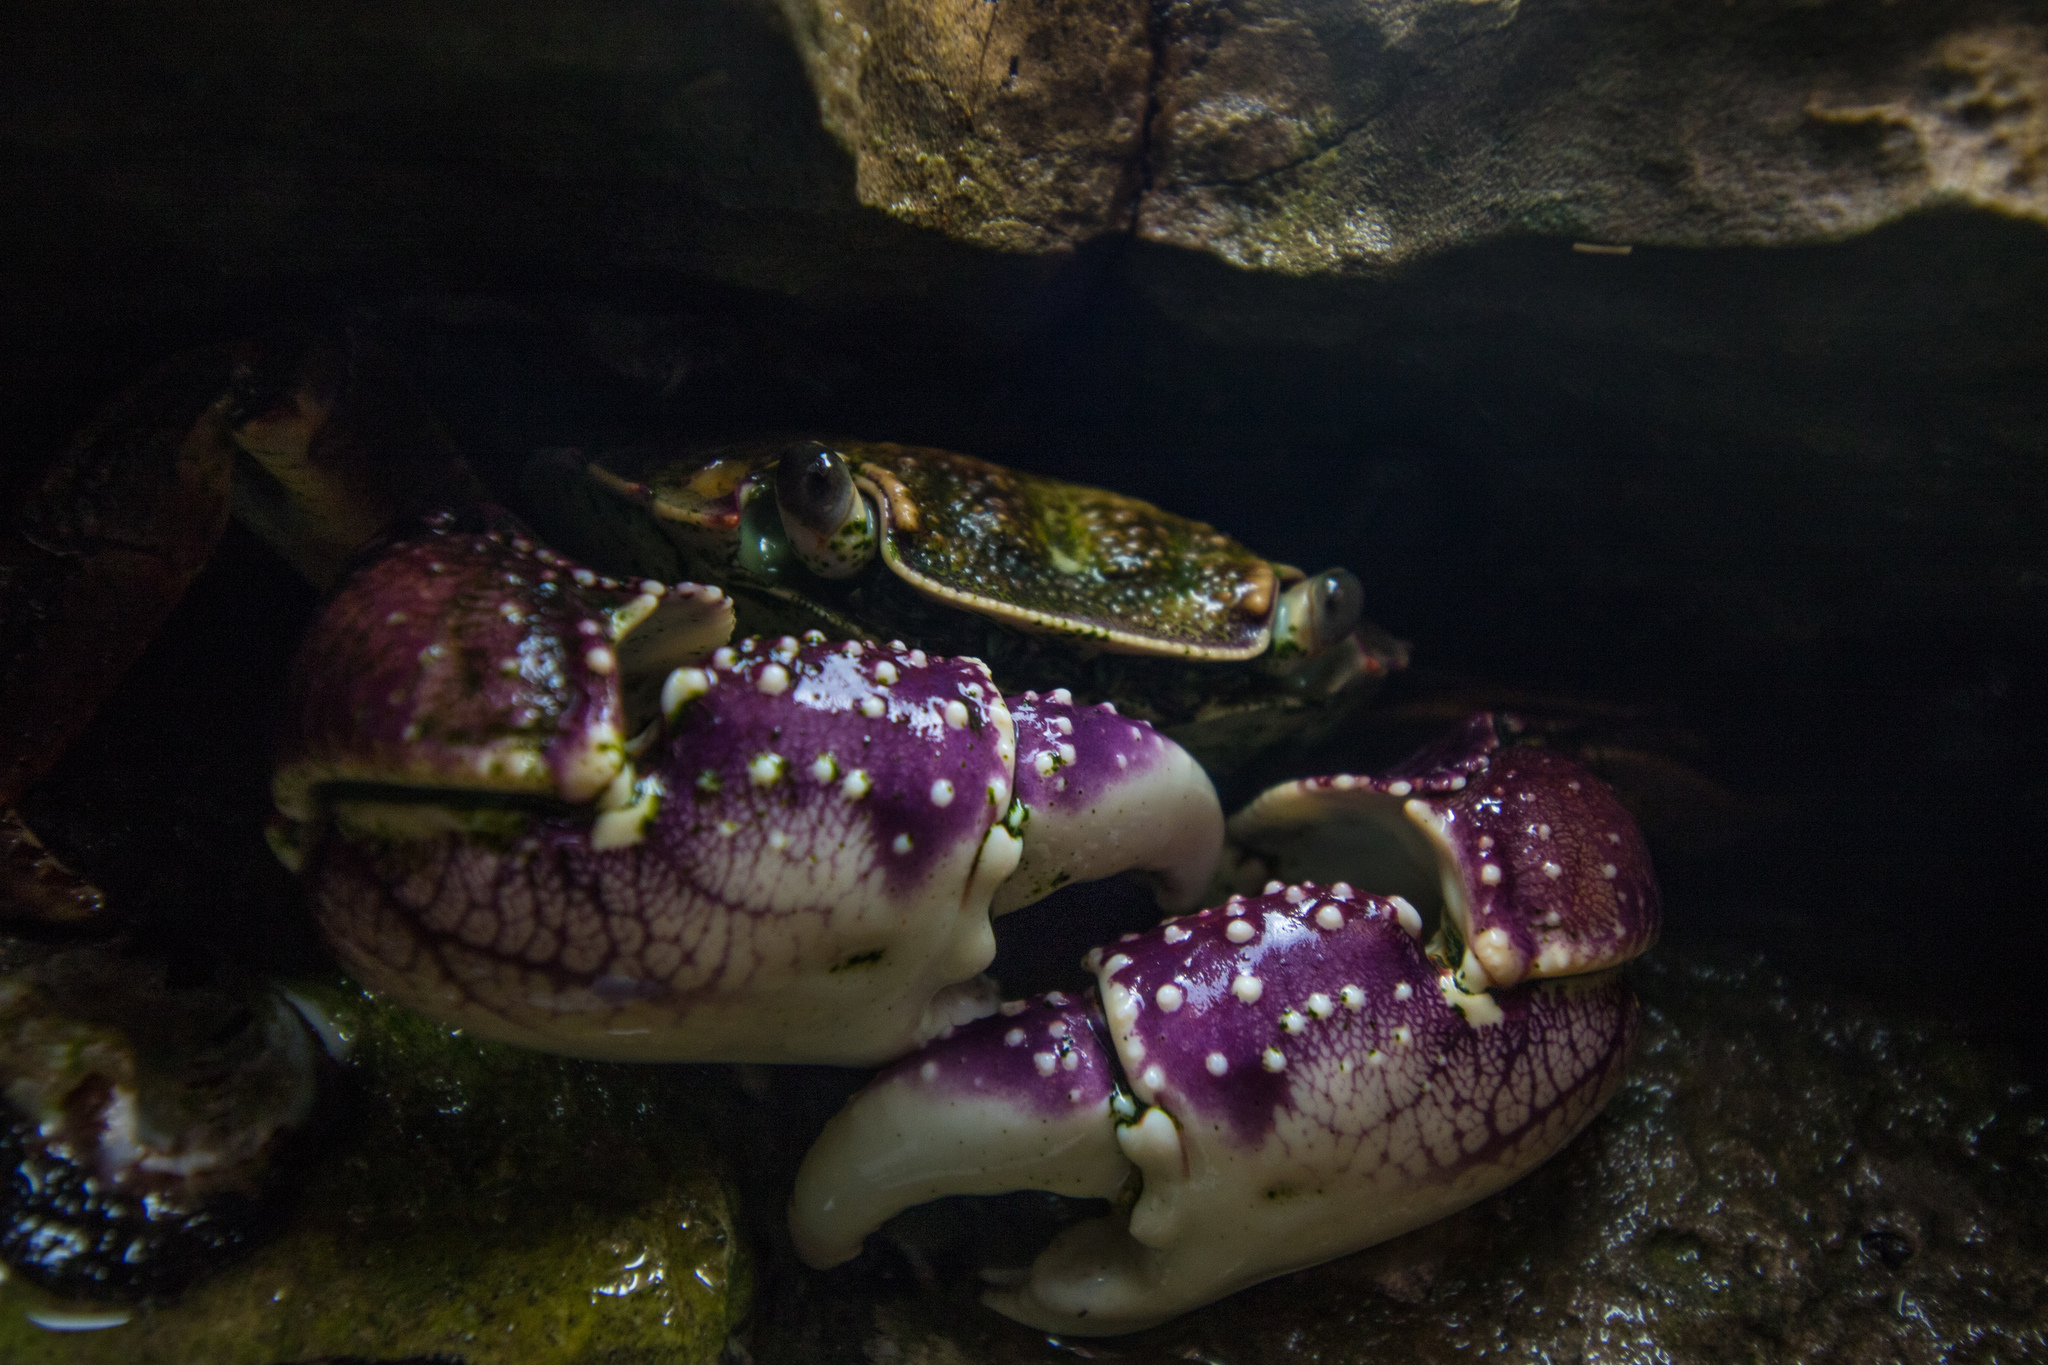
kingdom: Animalia
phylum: Arthropoda
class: Malacostraca
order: Decapoda
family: Grapsidae
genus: Leptograpsus
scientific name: Leptograpsus variegatus
